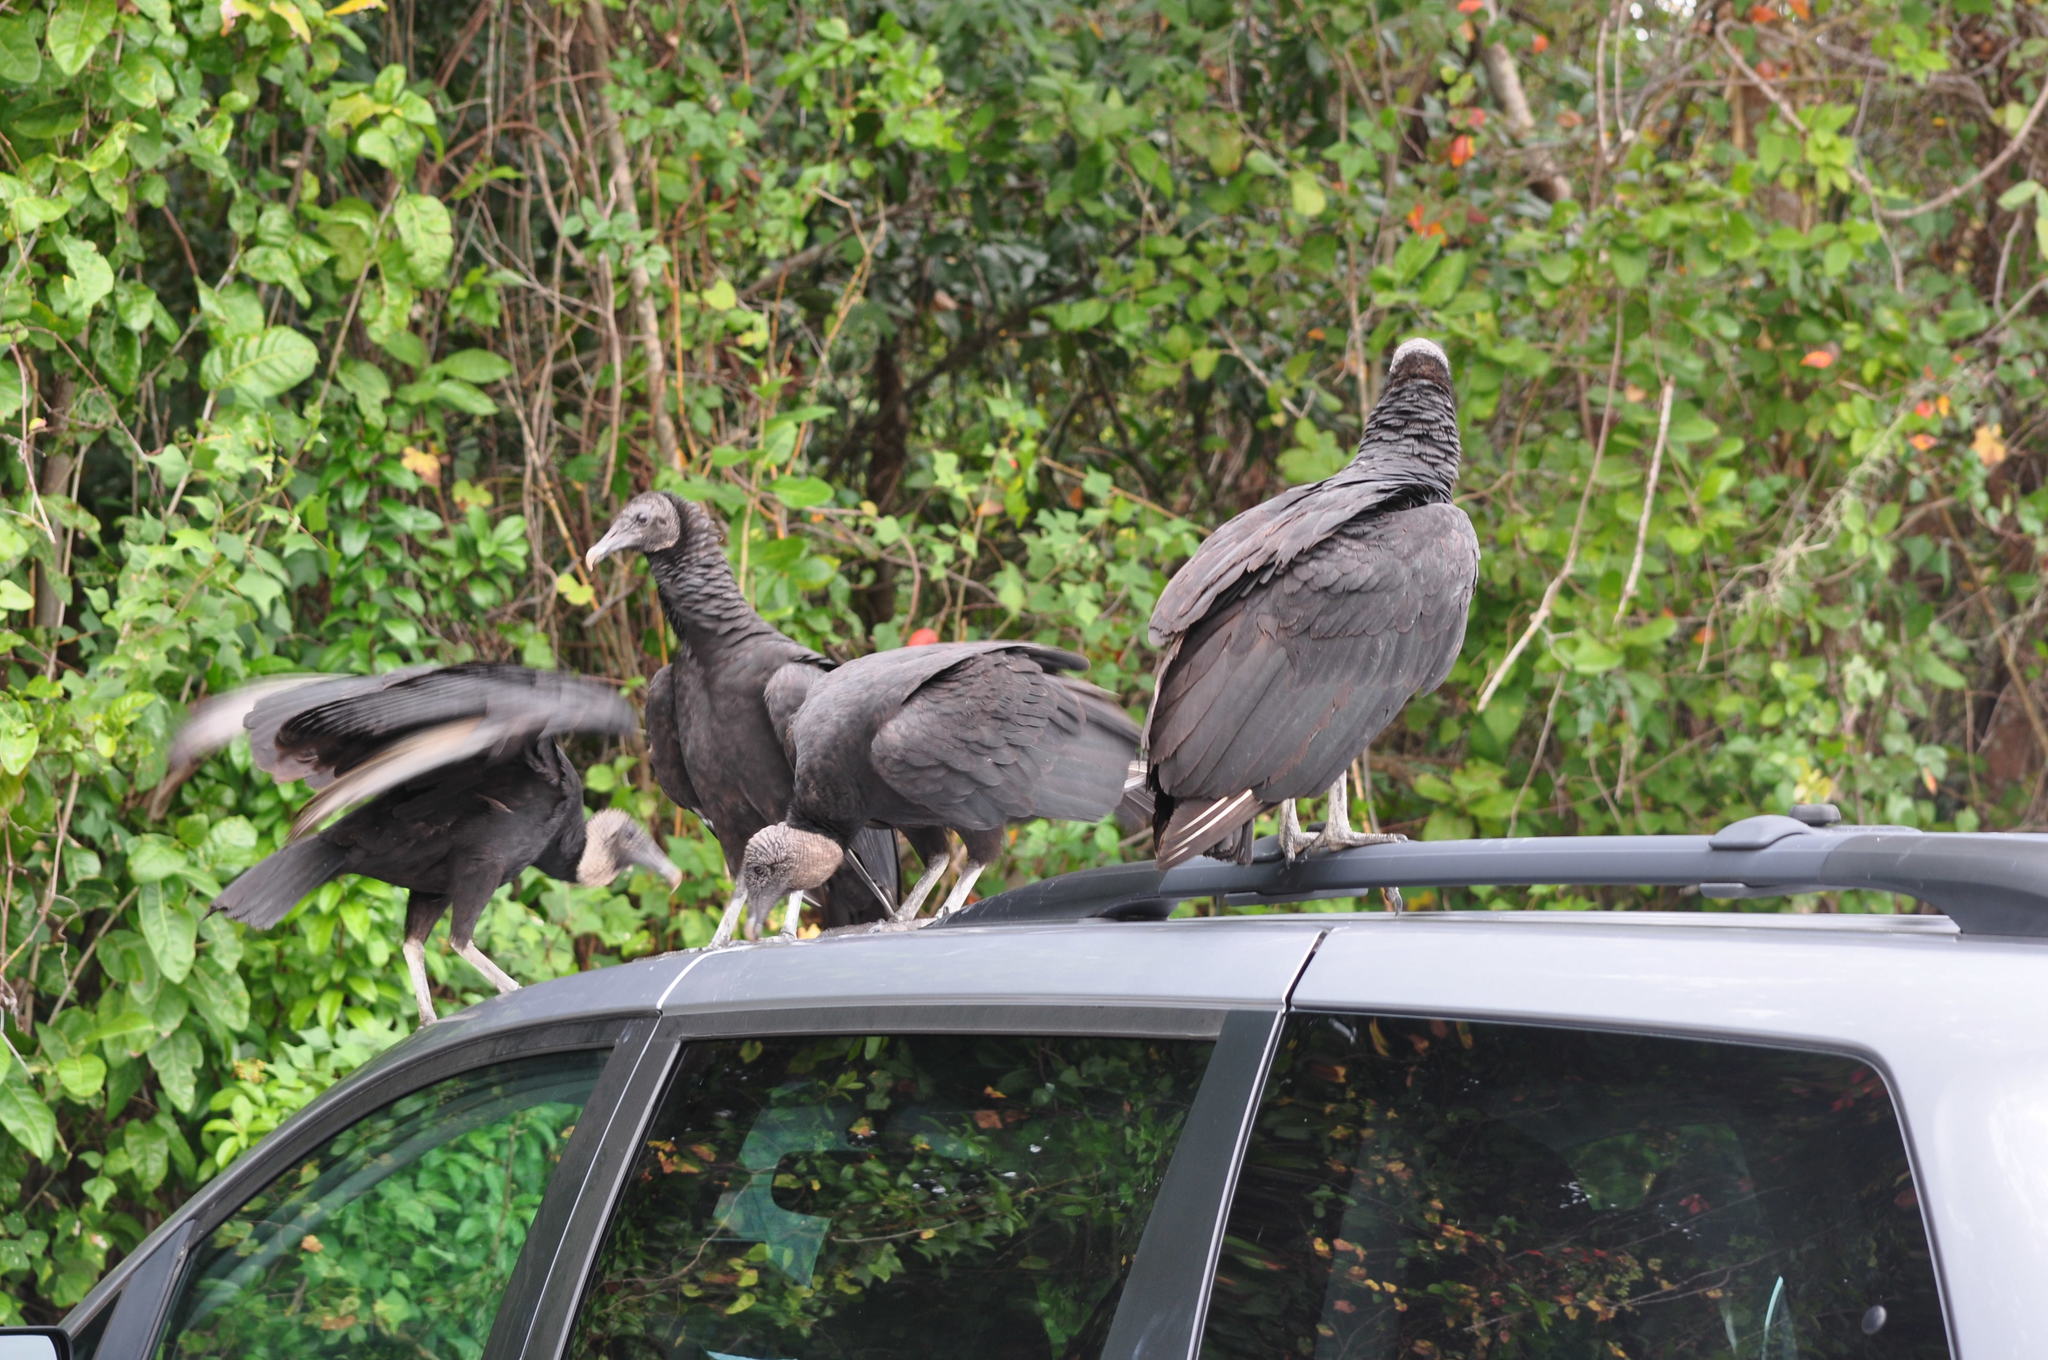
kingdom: Animalia
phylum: Chordata
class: Aves
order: Accipitriformes
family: Cathartidae
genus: Coragyps
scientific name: Coragyps atratus
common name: Black vulture
